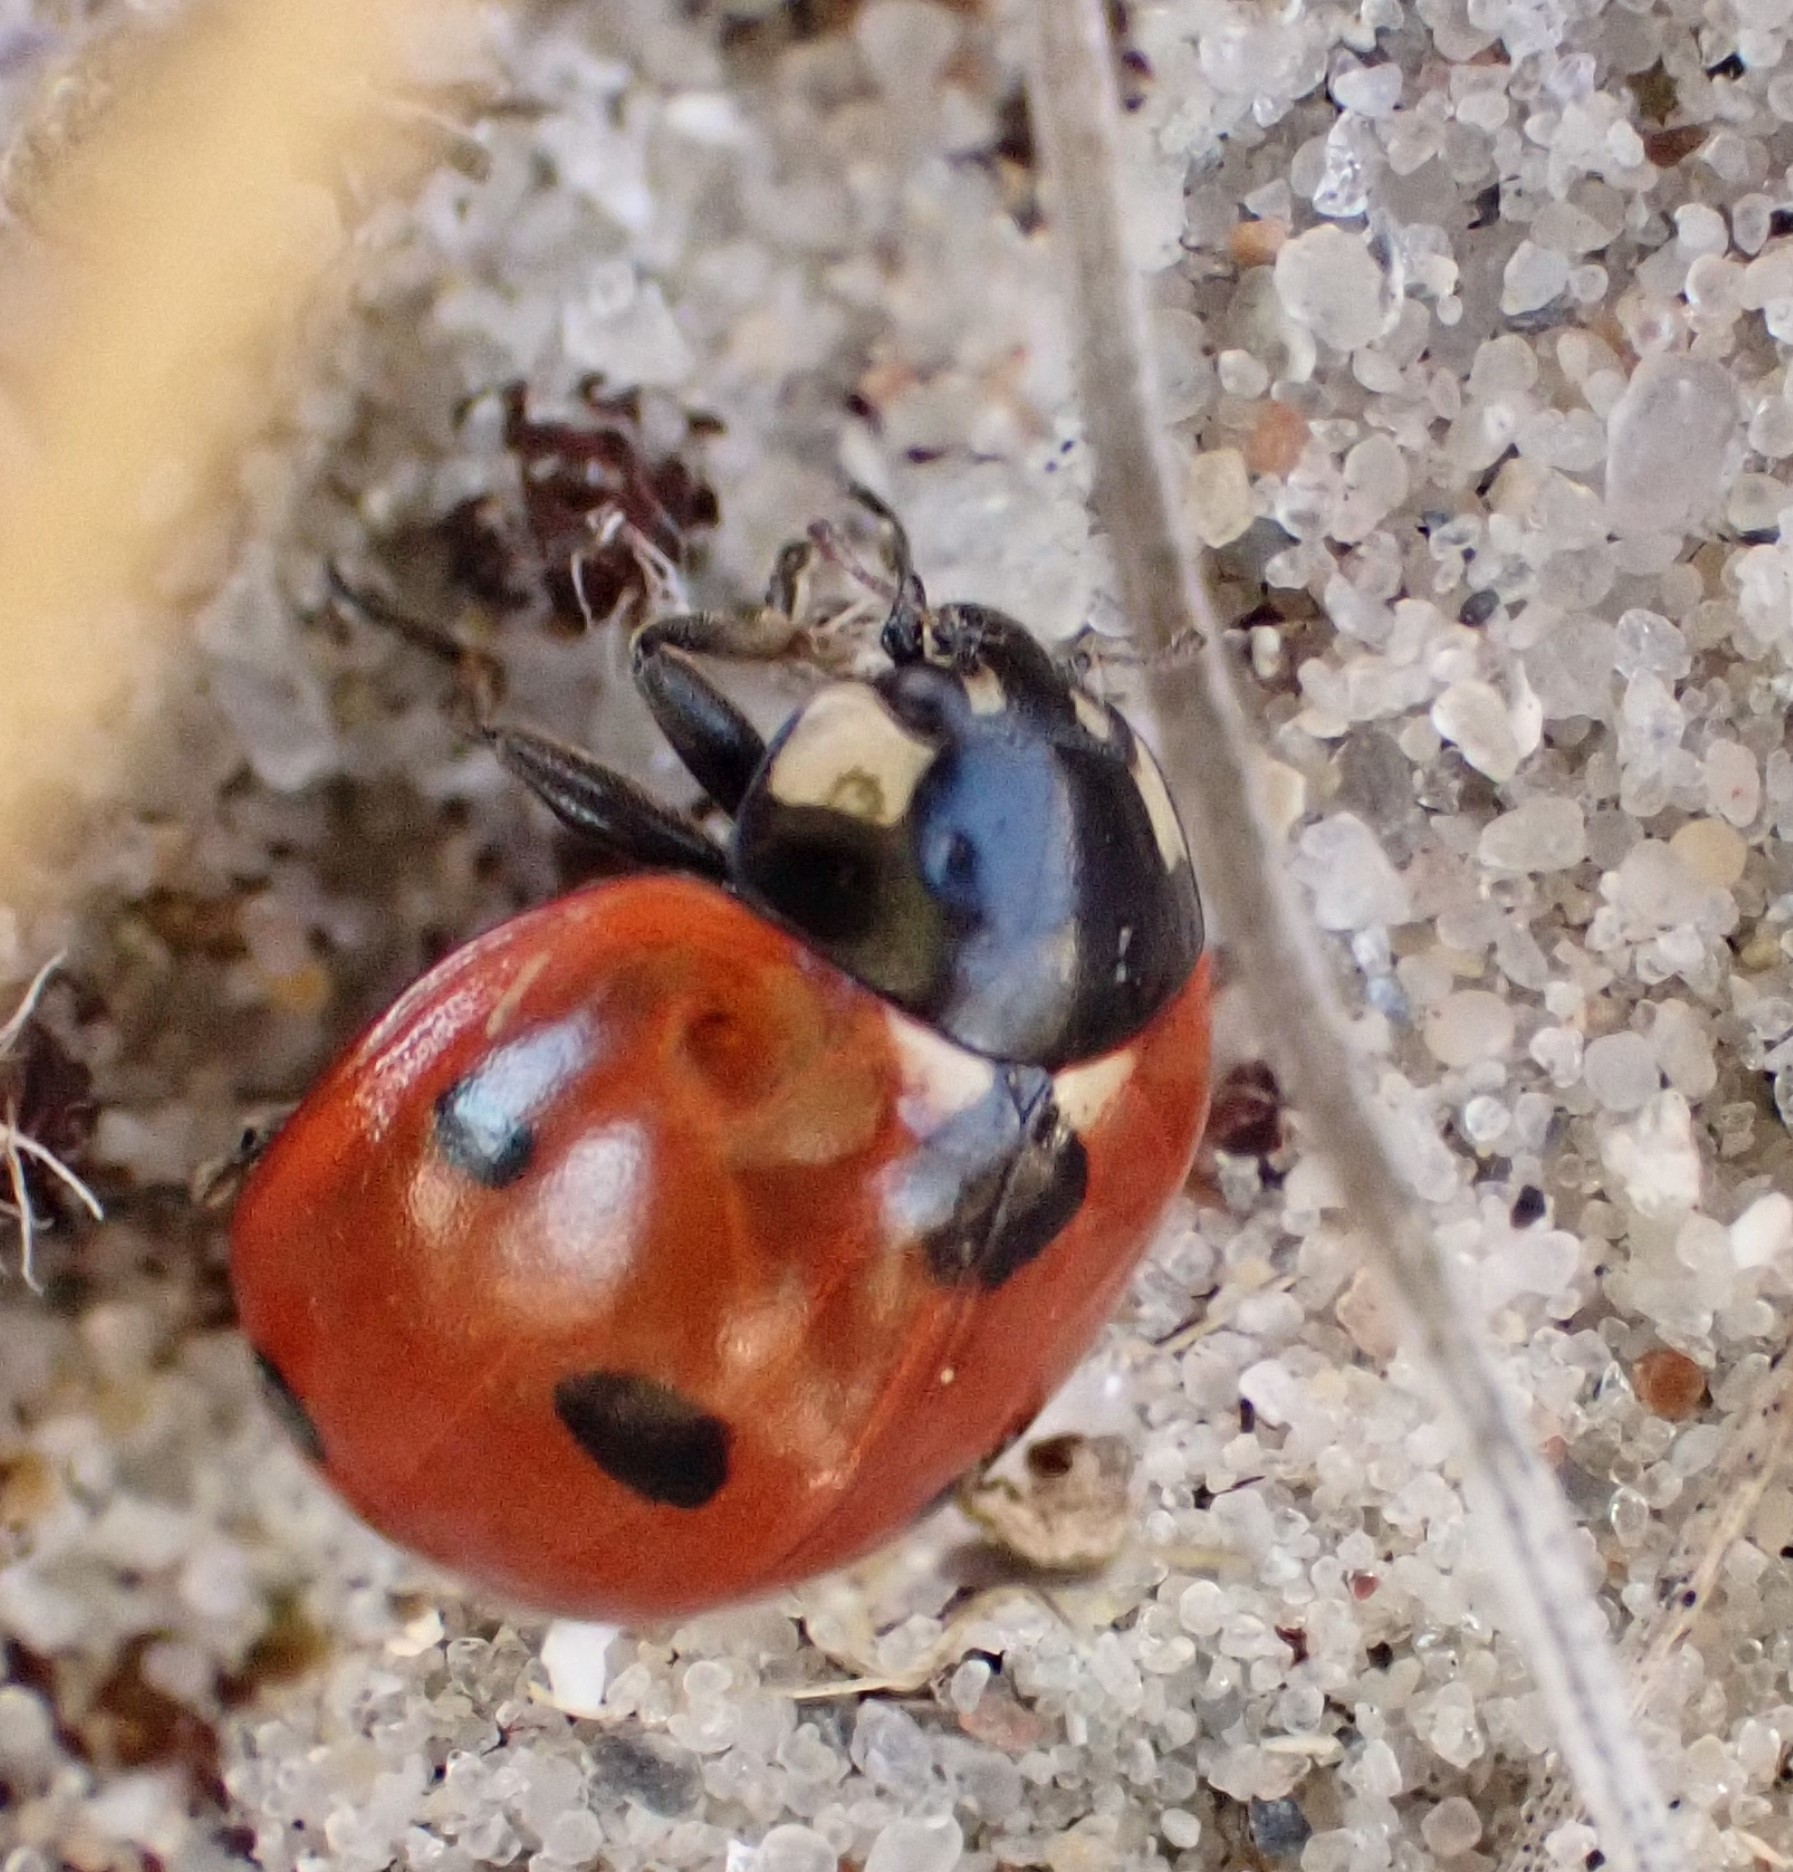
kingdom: Animalia
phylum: Arthropoda
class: Insecta
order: Coleoptera
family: Coccinellidae
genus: Coccinella
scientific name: Coccinella septempunctata
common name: Sevenspotted lady beetle
